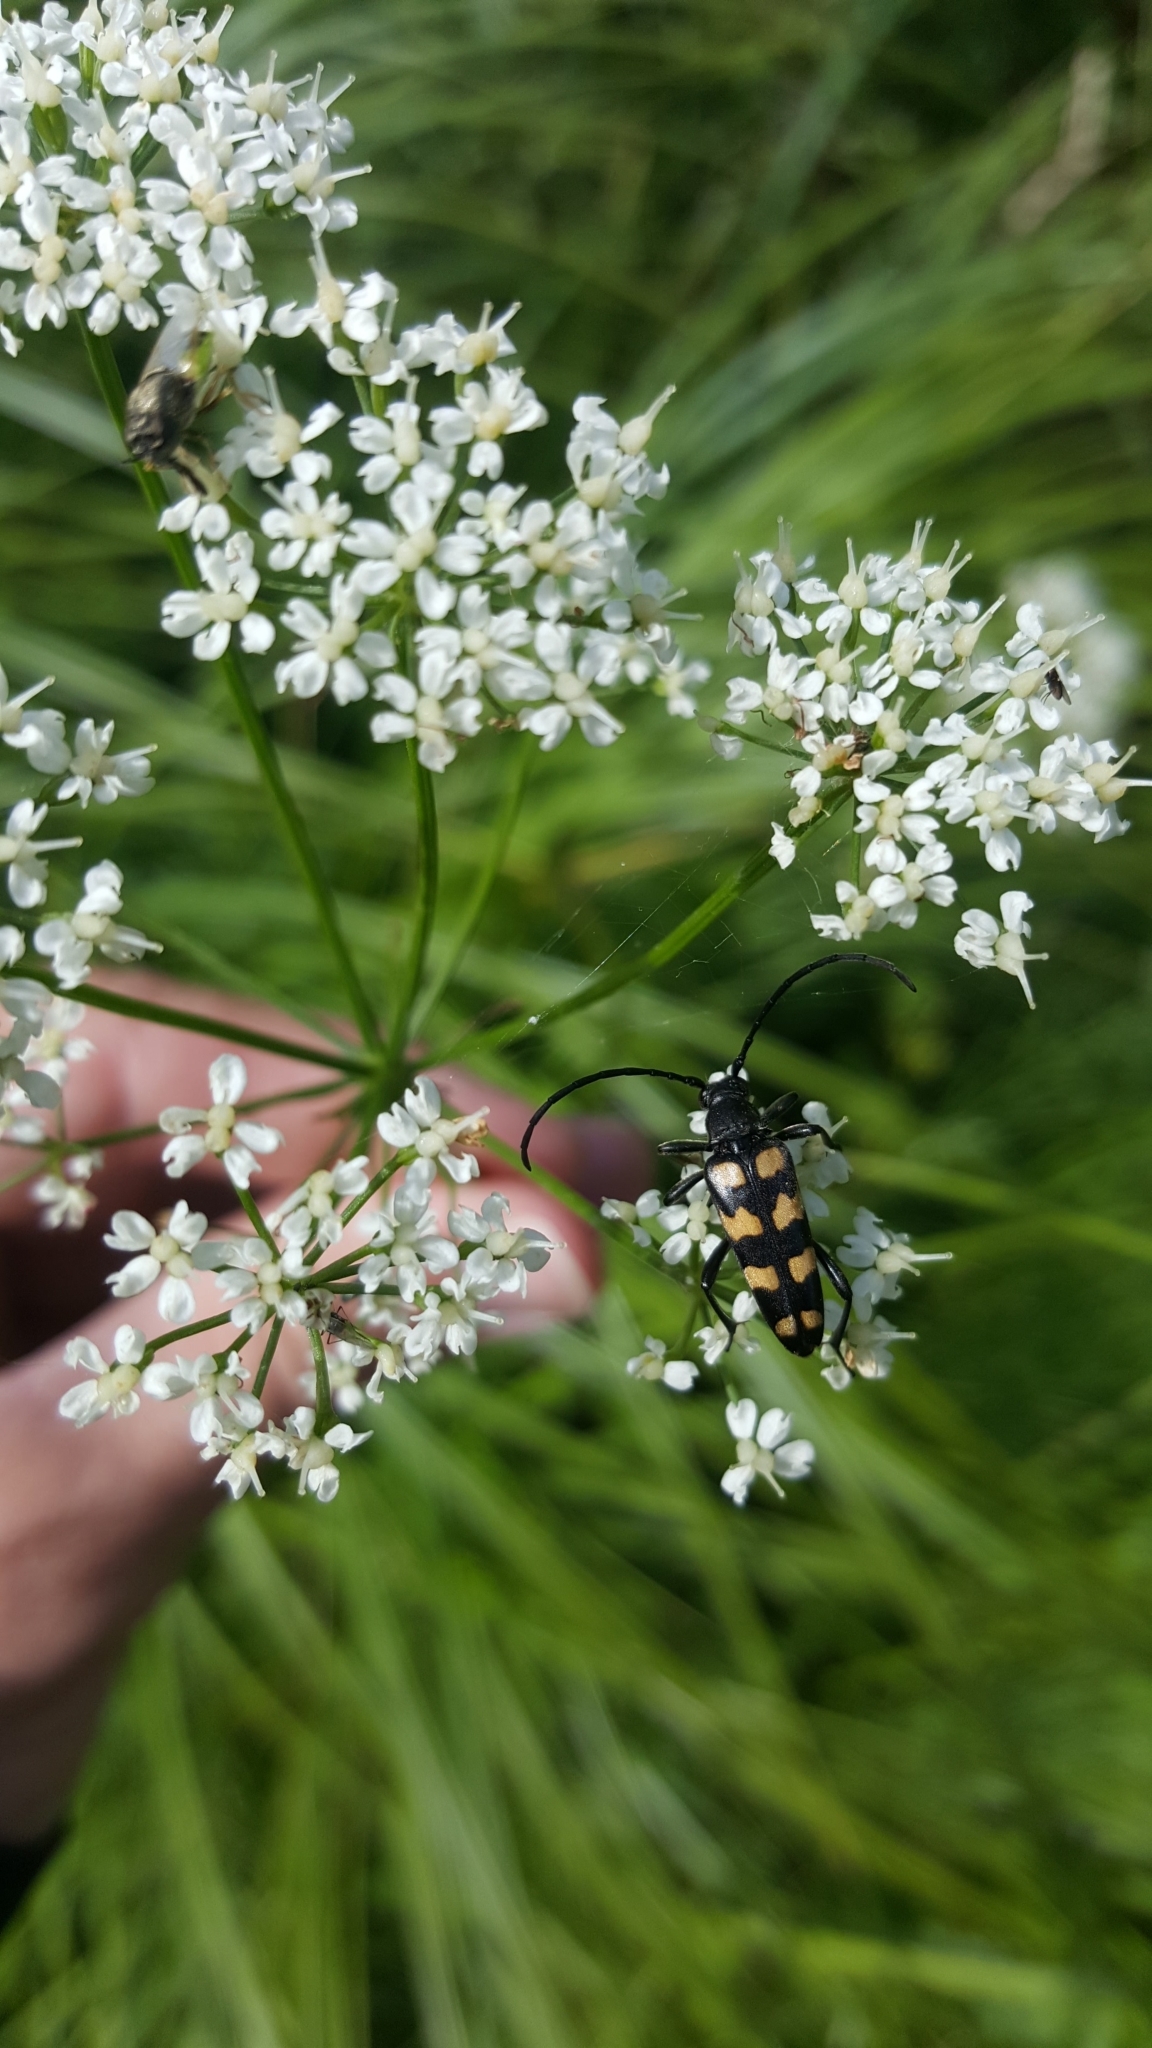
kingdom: Animalia
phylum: Arthropoda
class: Insecta
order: Coleoptera
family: Cerambycidae
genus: Leptura
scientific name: Leptura quadrifasciata
